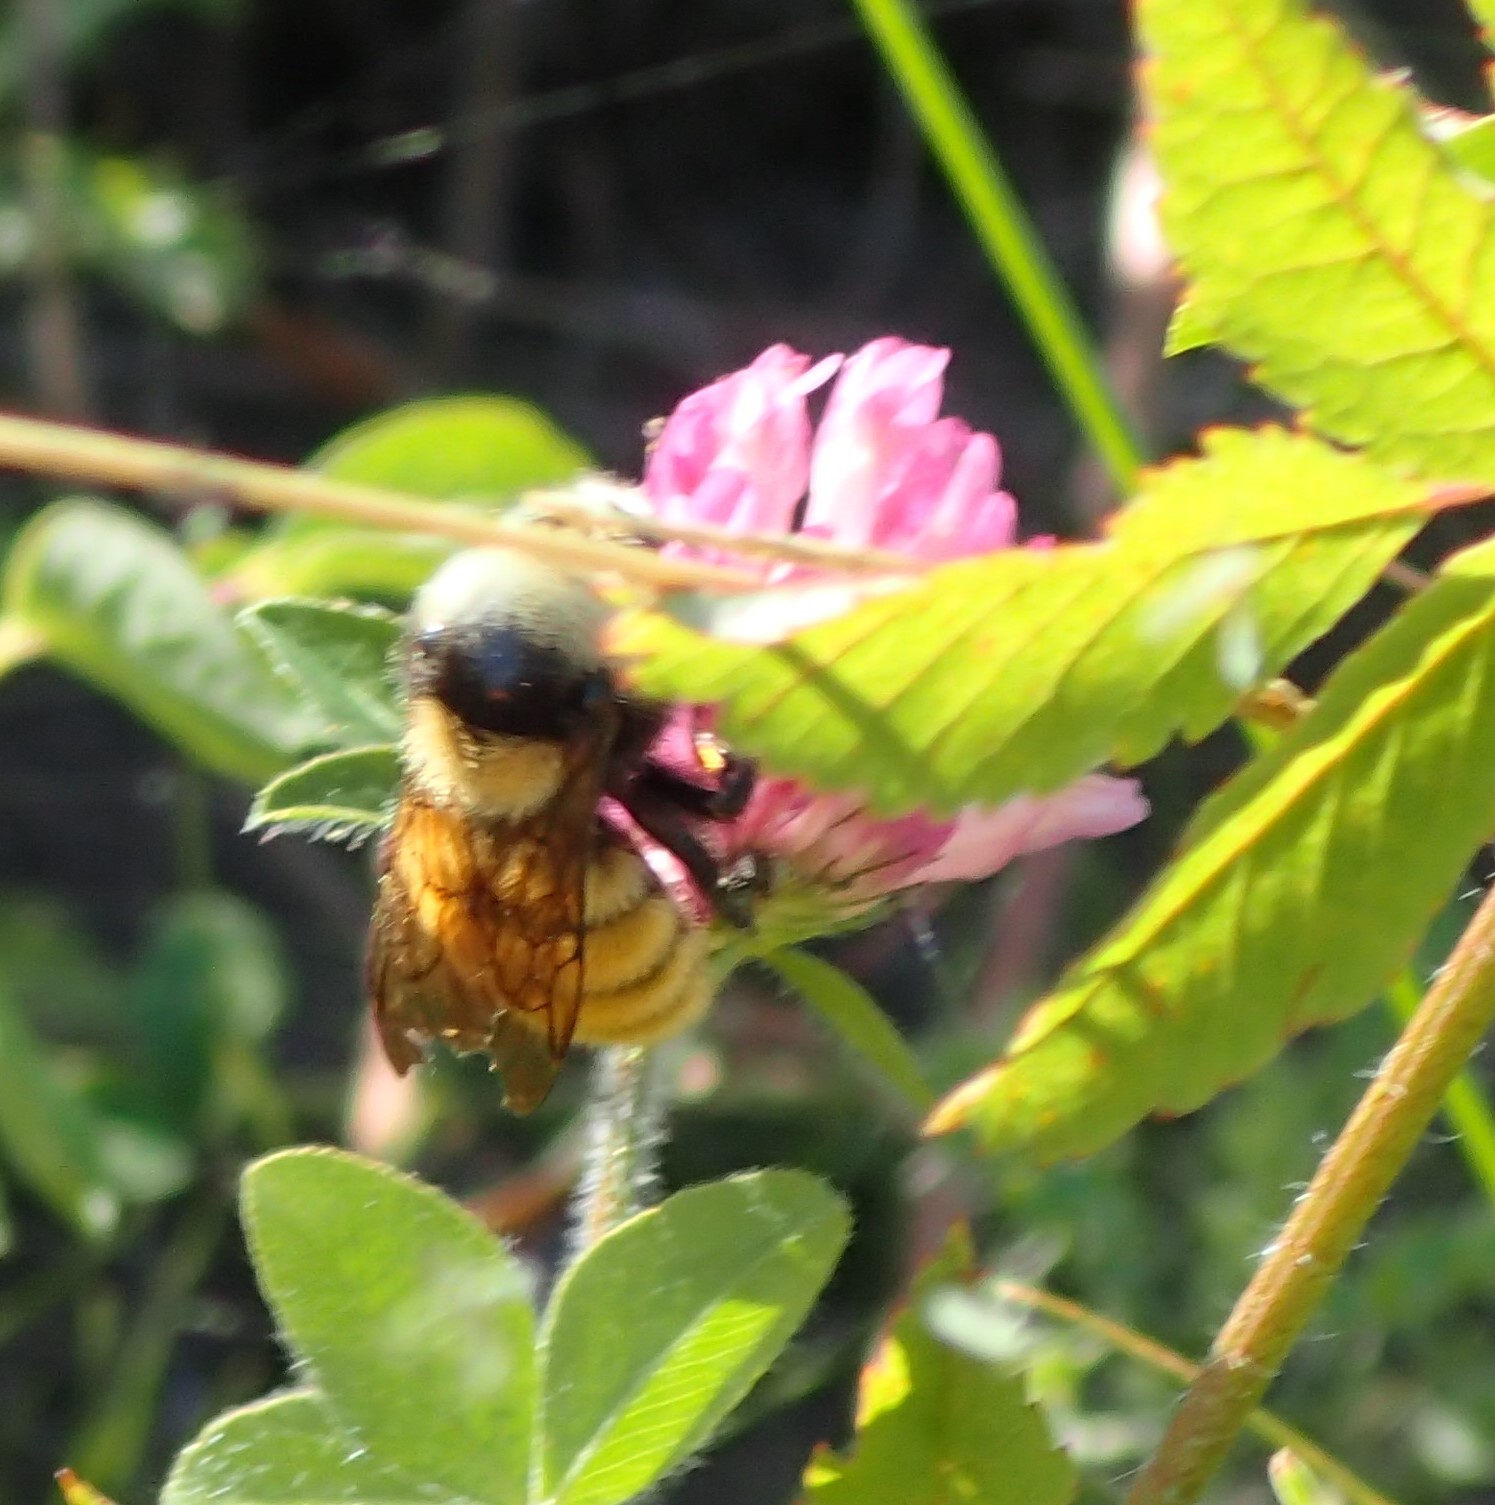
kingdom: Animalia
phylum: Arthropoda
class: Insecta
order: Hymenoptera
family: Apidae
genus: Bombus
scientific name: Bombus appositus
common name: White-shouldered bumble bee
